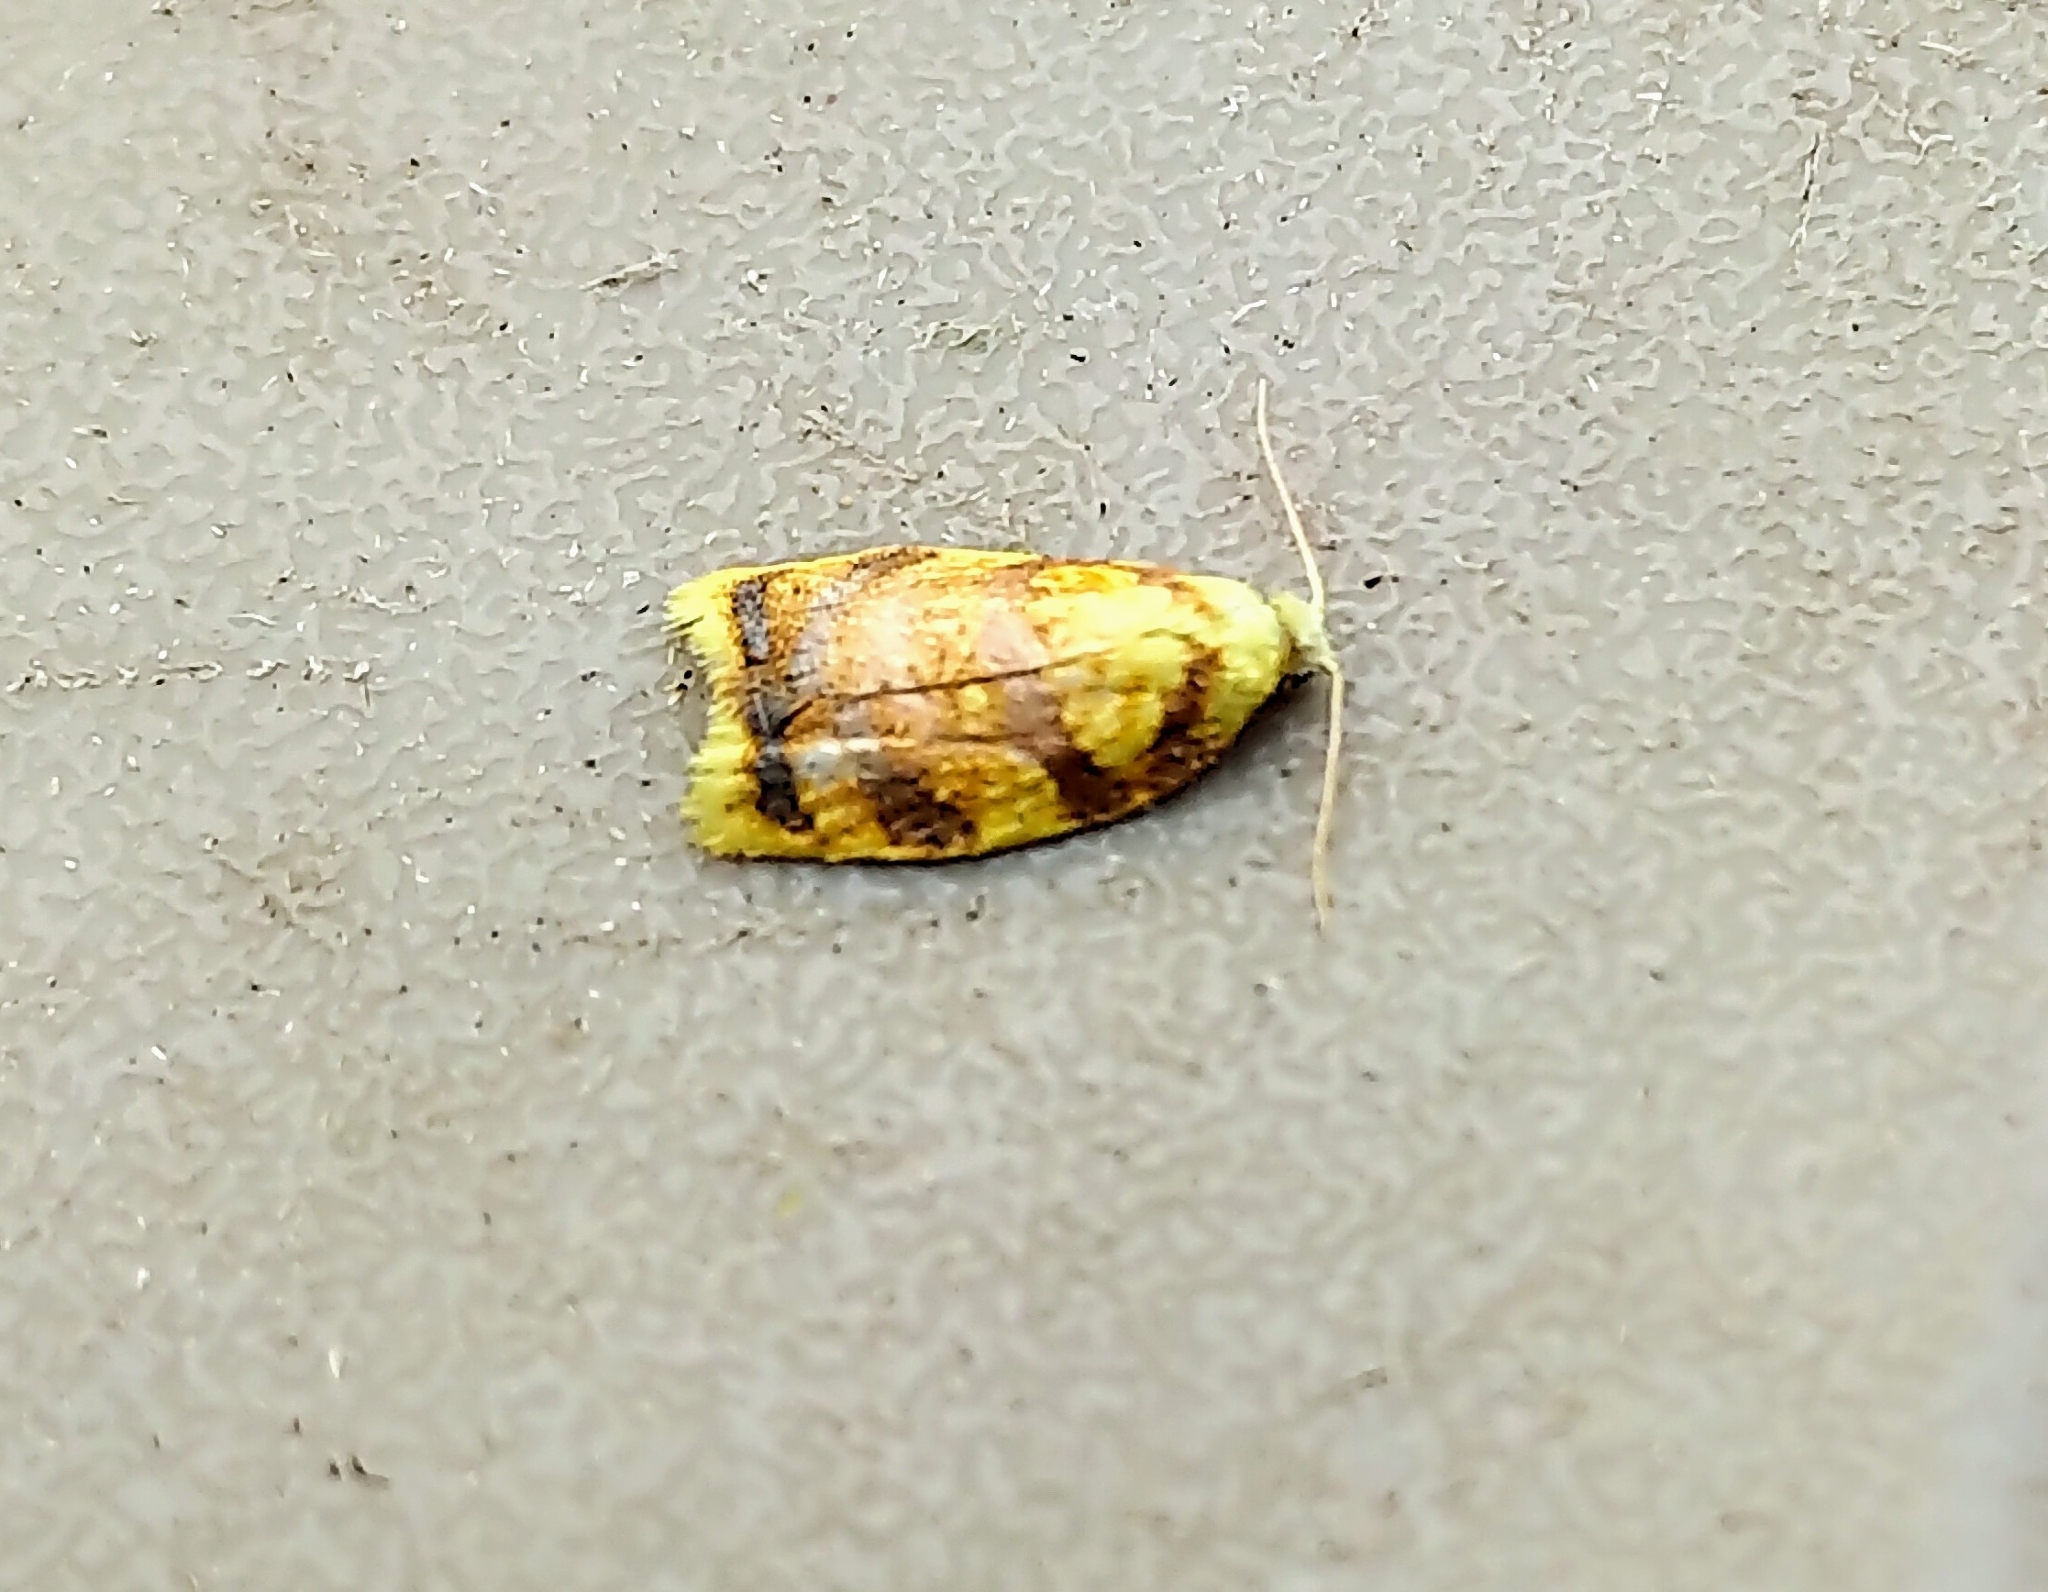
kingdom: Animalia
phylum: Arthropoda
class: Insecta
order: Lepidoptera
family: Tortricidae
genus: Acleris
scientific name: Acleris albicomana
